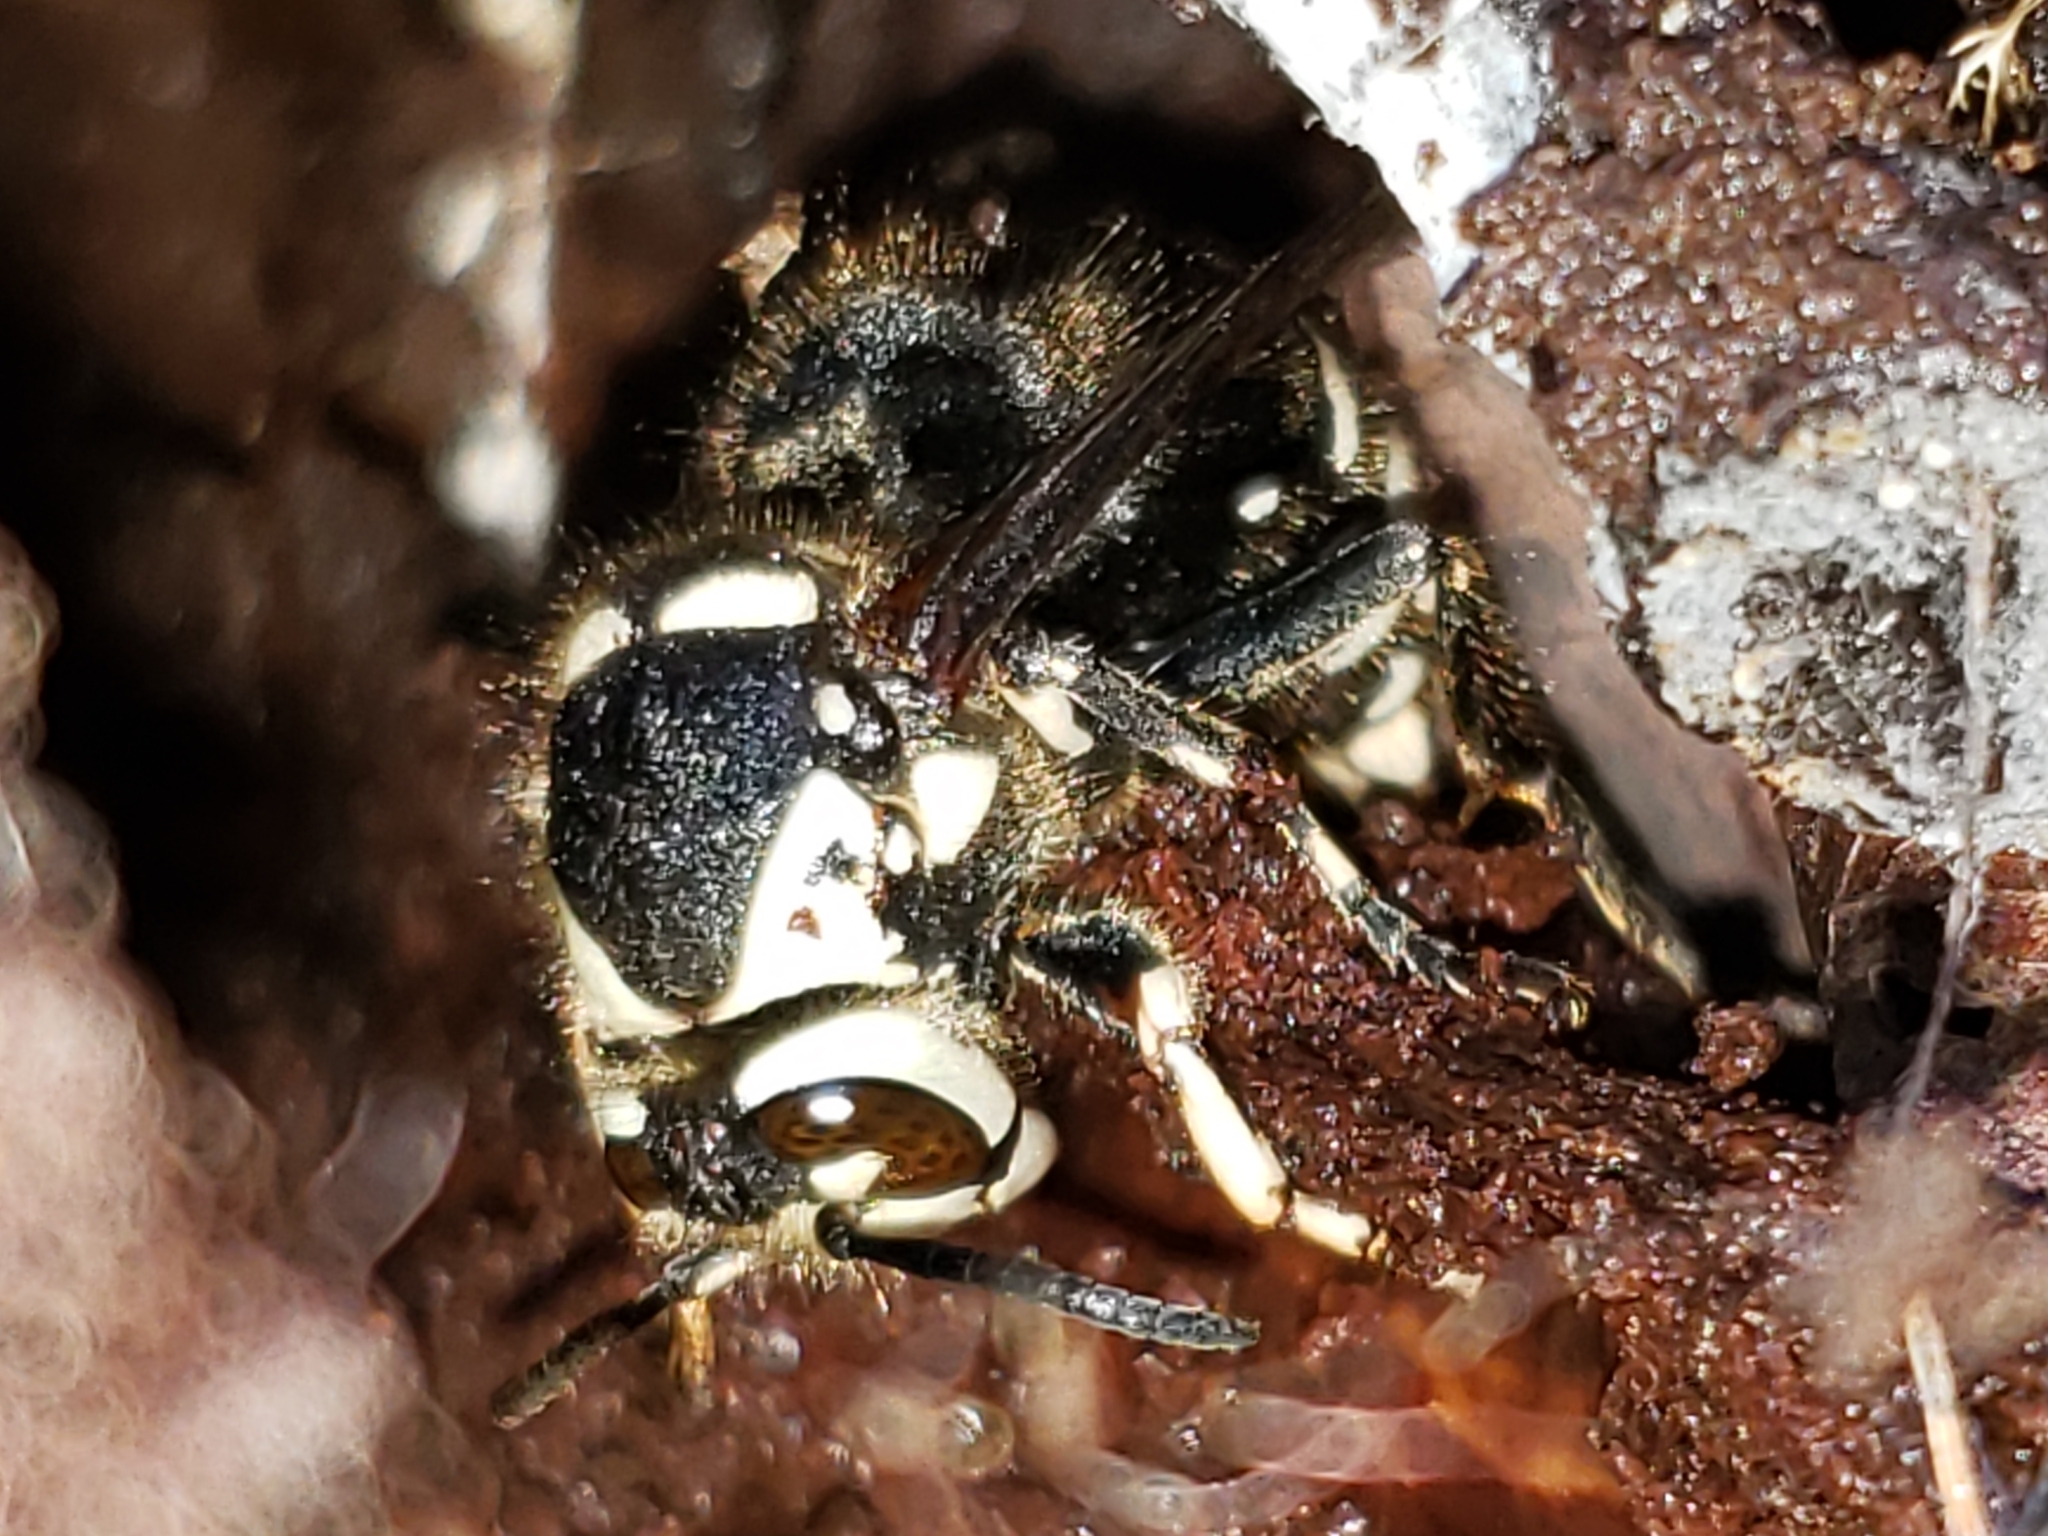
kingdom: Animalia
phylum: Arthropoda
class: Insecta
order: Hymenoptera
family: Vespidae
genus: Dolichovespula
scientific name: Dolichovespula maculata
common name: Bald-faced hornet
